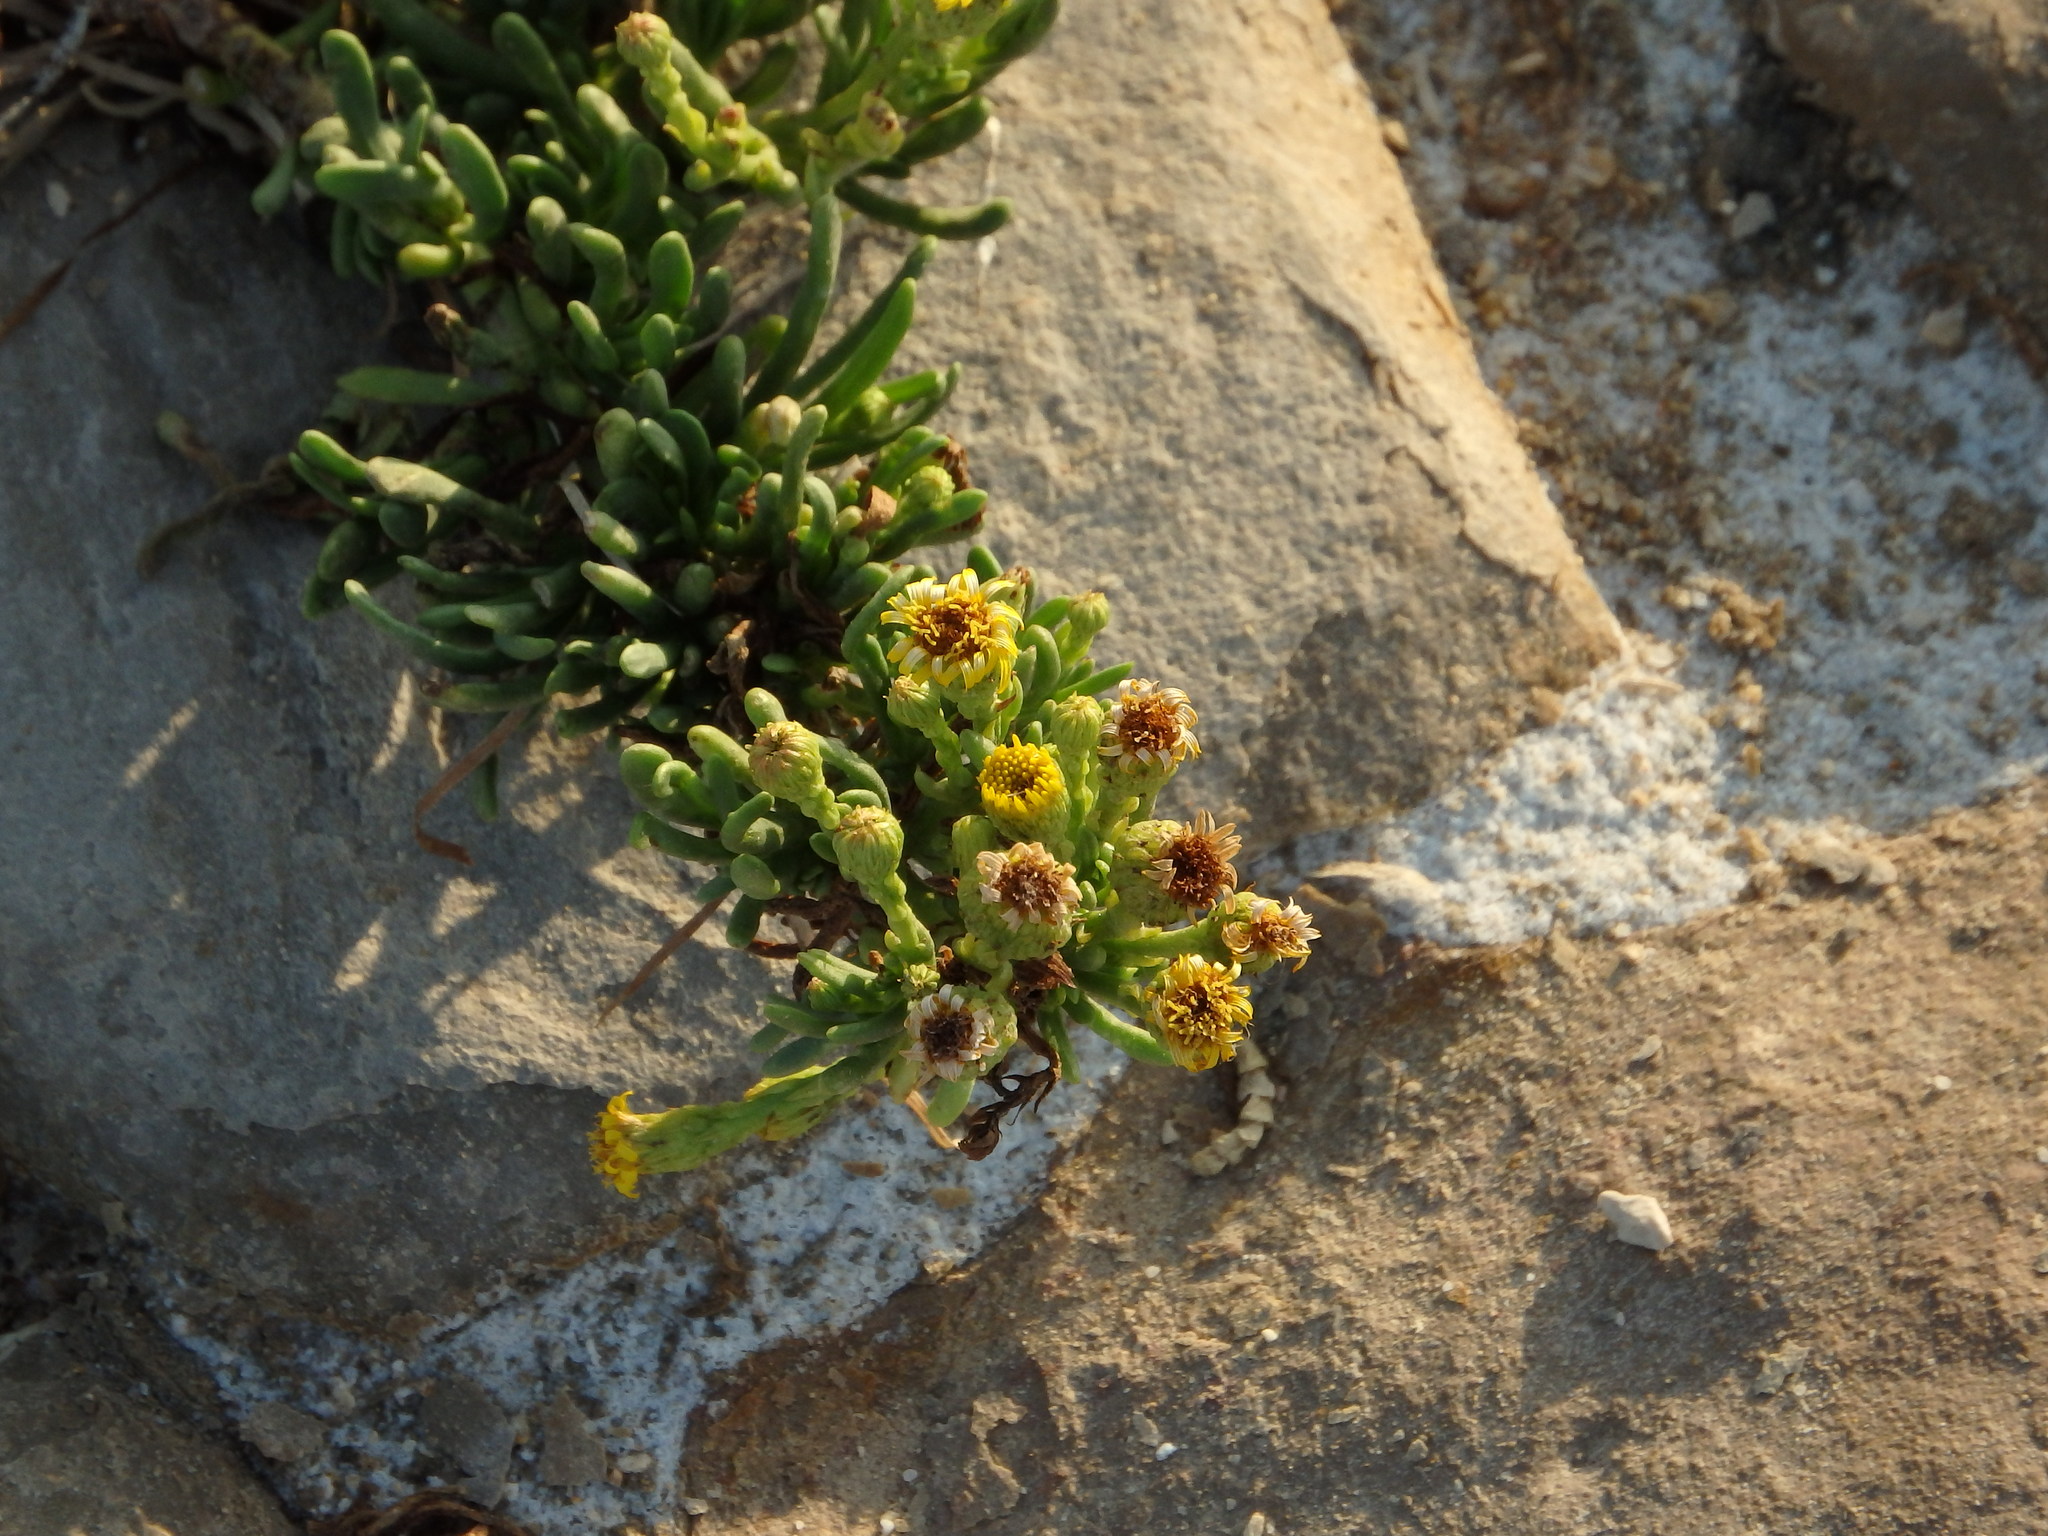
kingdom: Plantae
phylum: Tracheophyta
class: Magnoliopsida
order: Asterales
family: Asteraceae
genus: Limbarda
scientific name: Limbarda crithmoides
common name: Golden samphire
